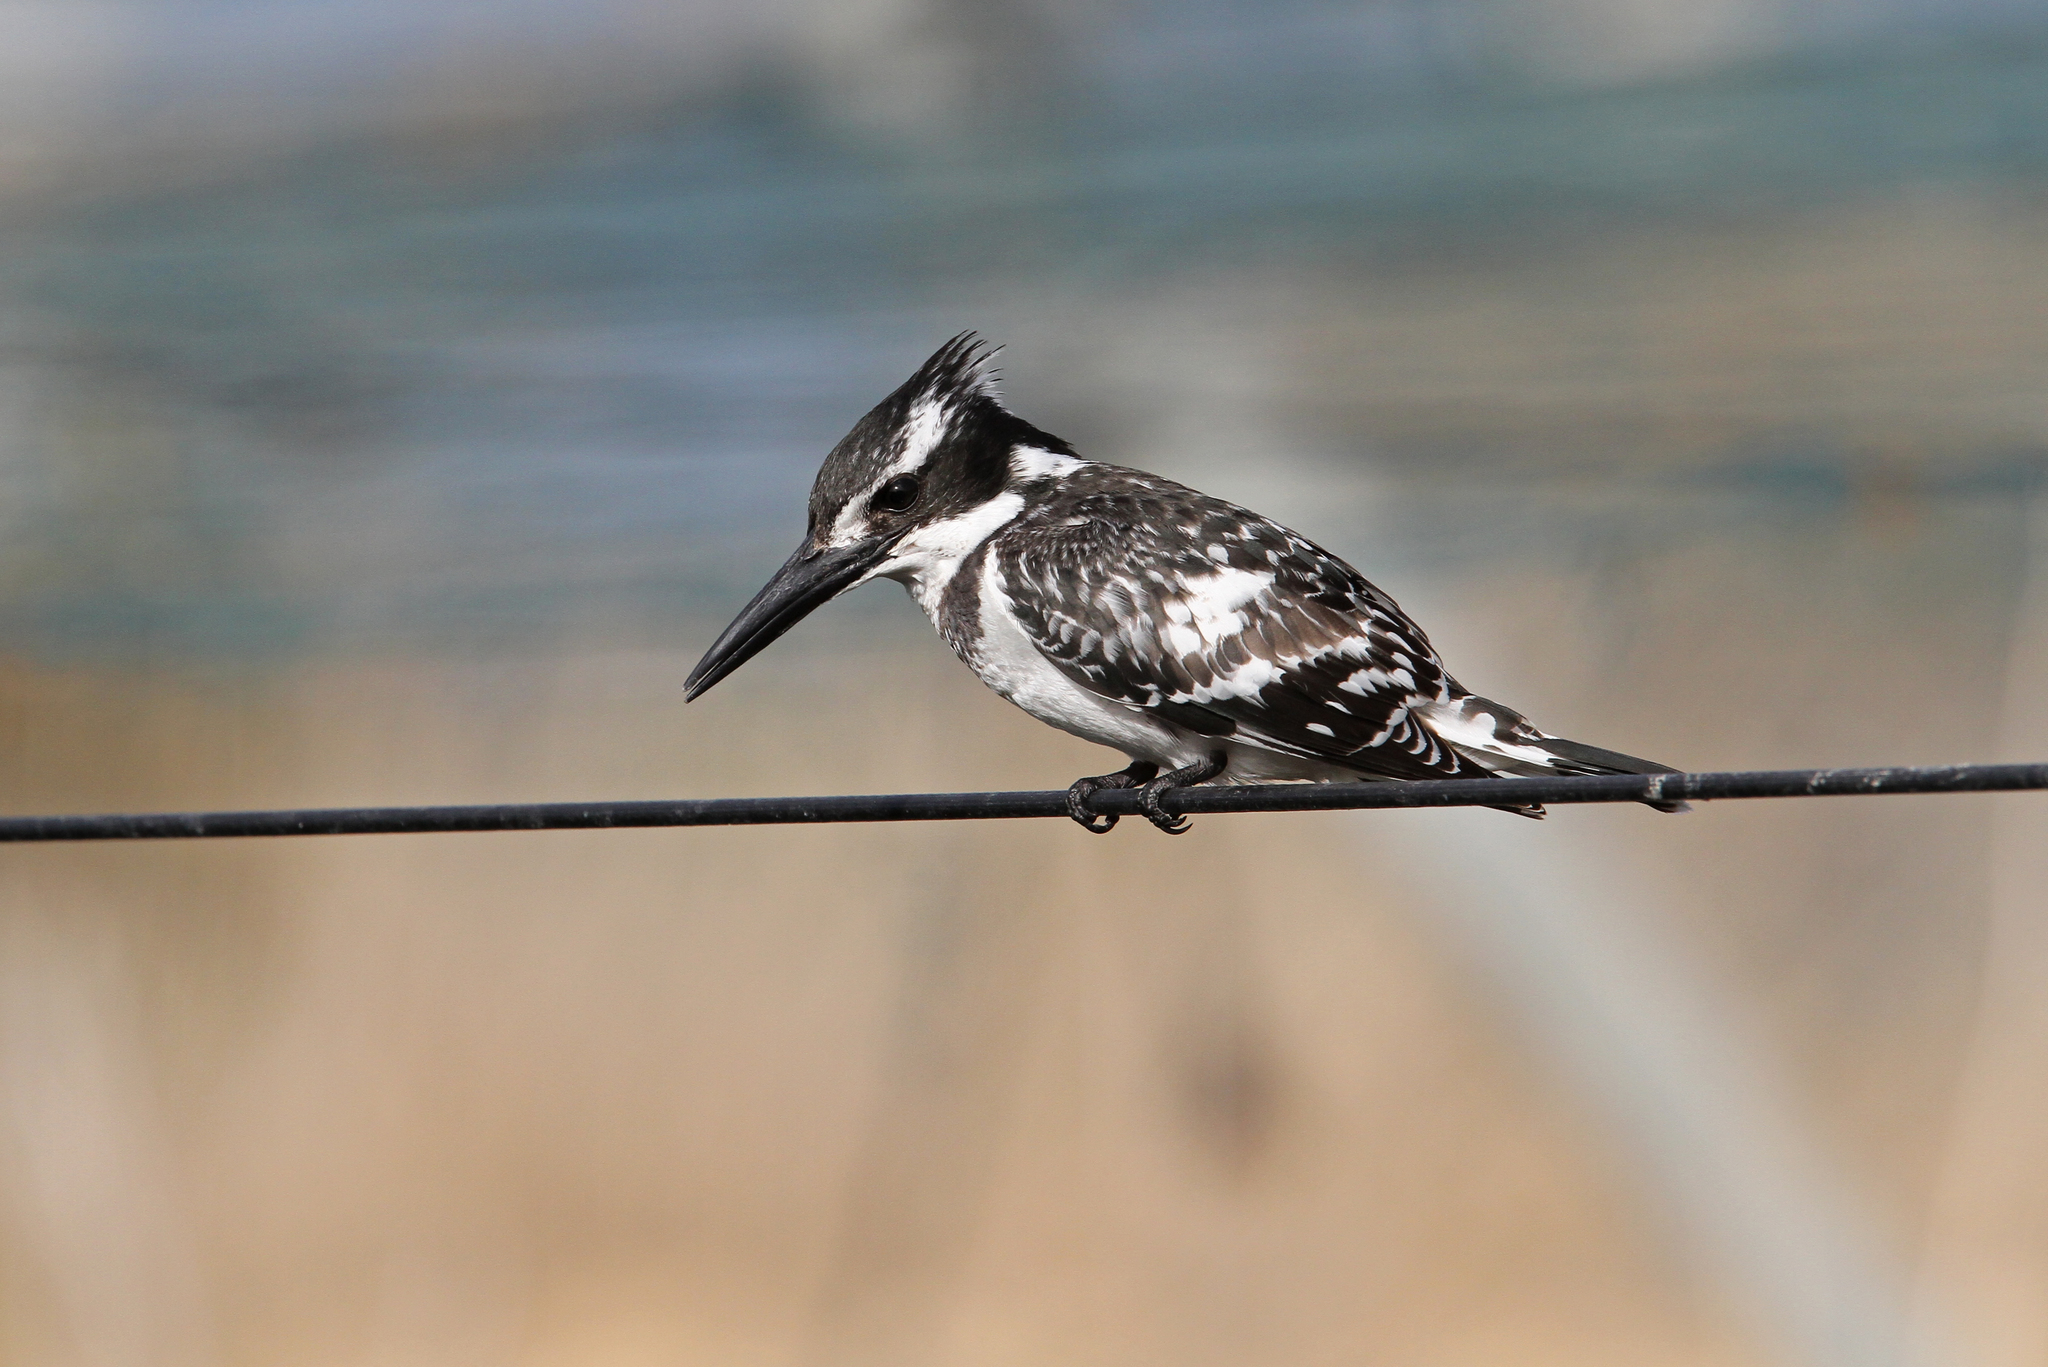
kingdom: Animalia
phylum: Chordata
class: Aves
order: Coraciiformes
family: Alcedinidae
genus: Ceryle
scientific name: Ceryle rudis
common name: Pied kingfisher
